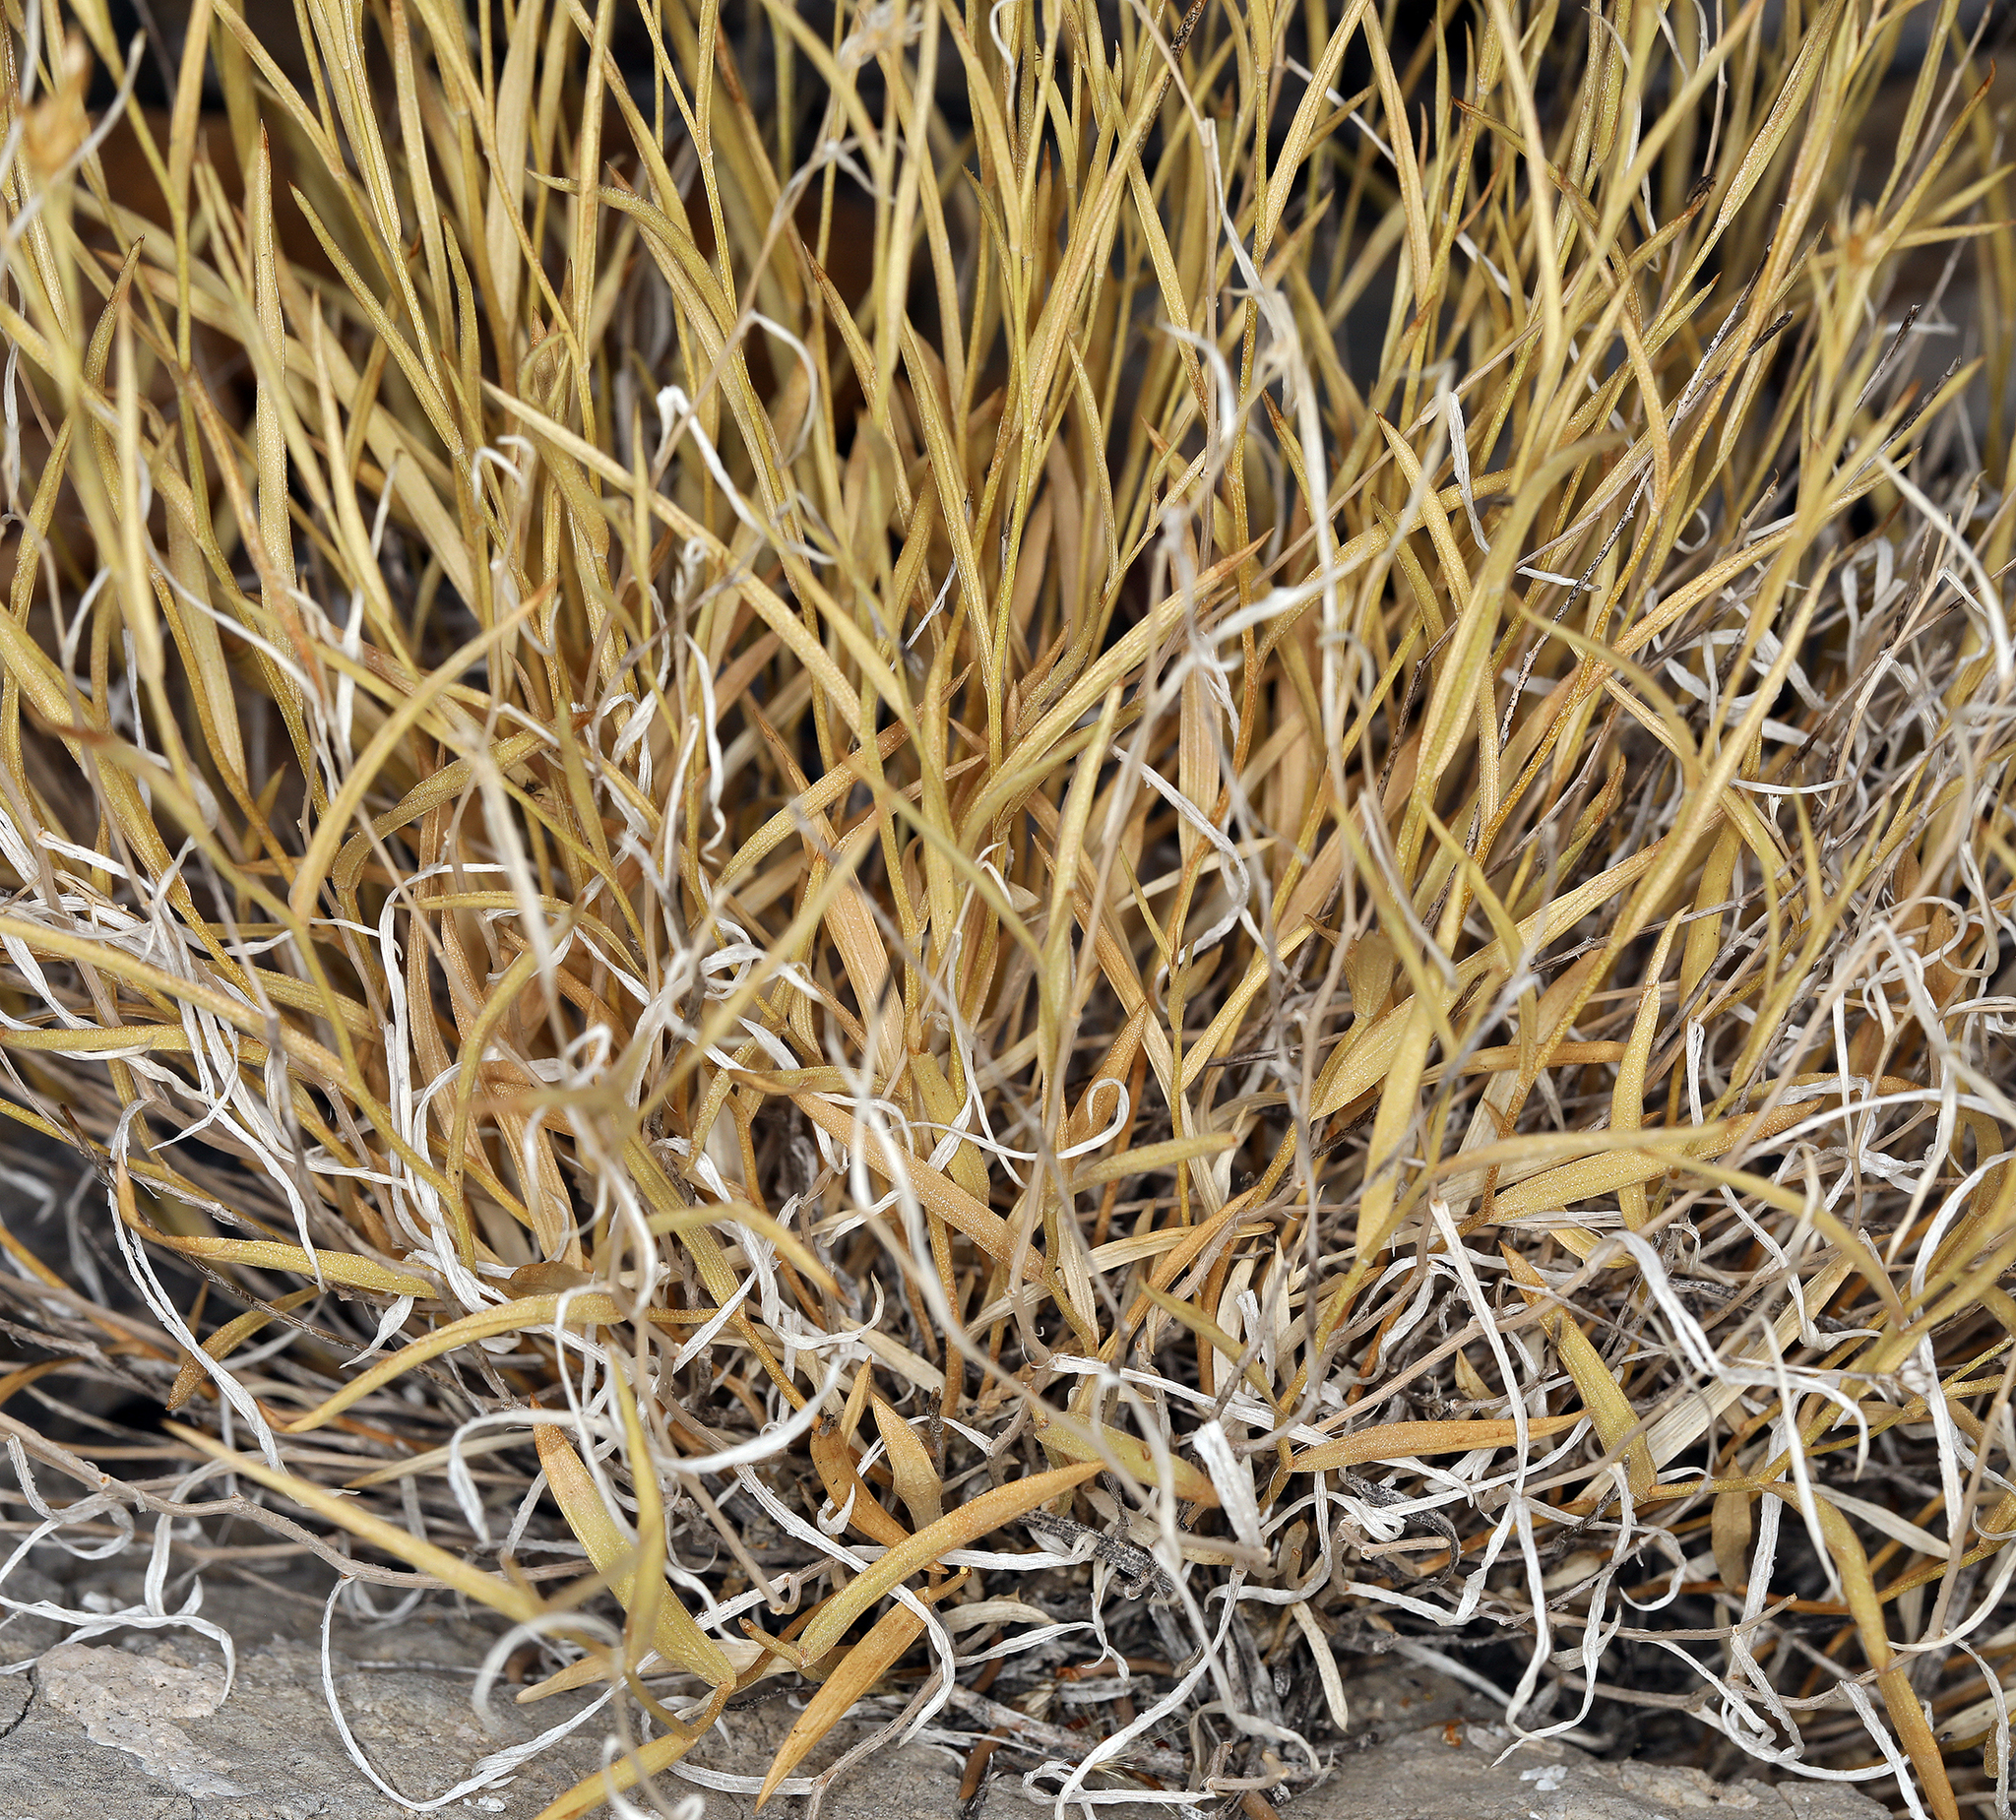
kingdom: Plantae
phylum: Tracheophyta
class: Magnoliopsida
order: Asterales
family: Asteraceae
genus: Cuniculotinus
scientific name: Cuniculotinus gramineus
